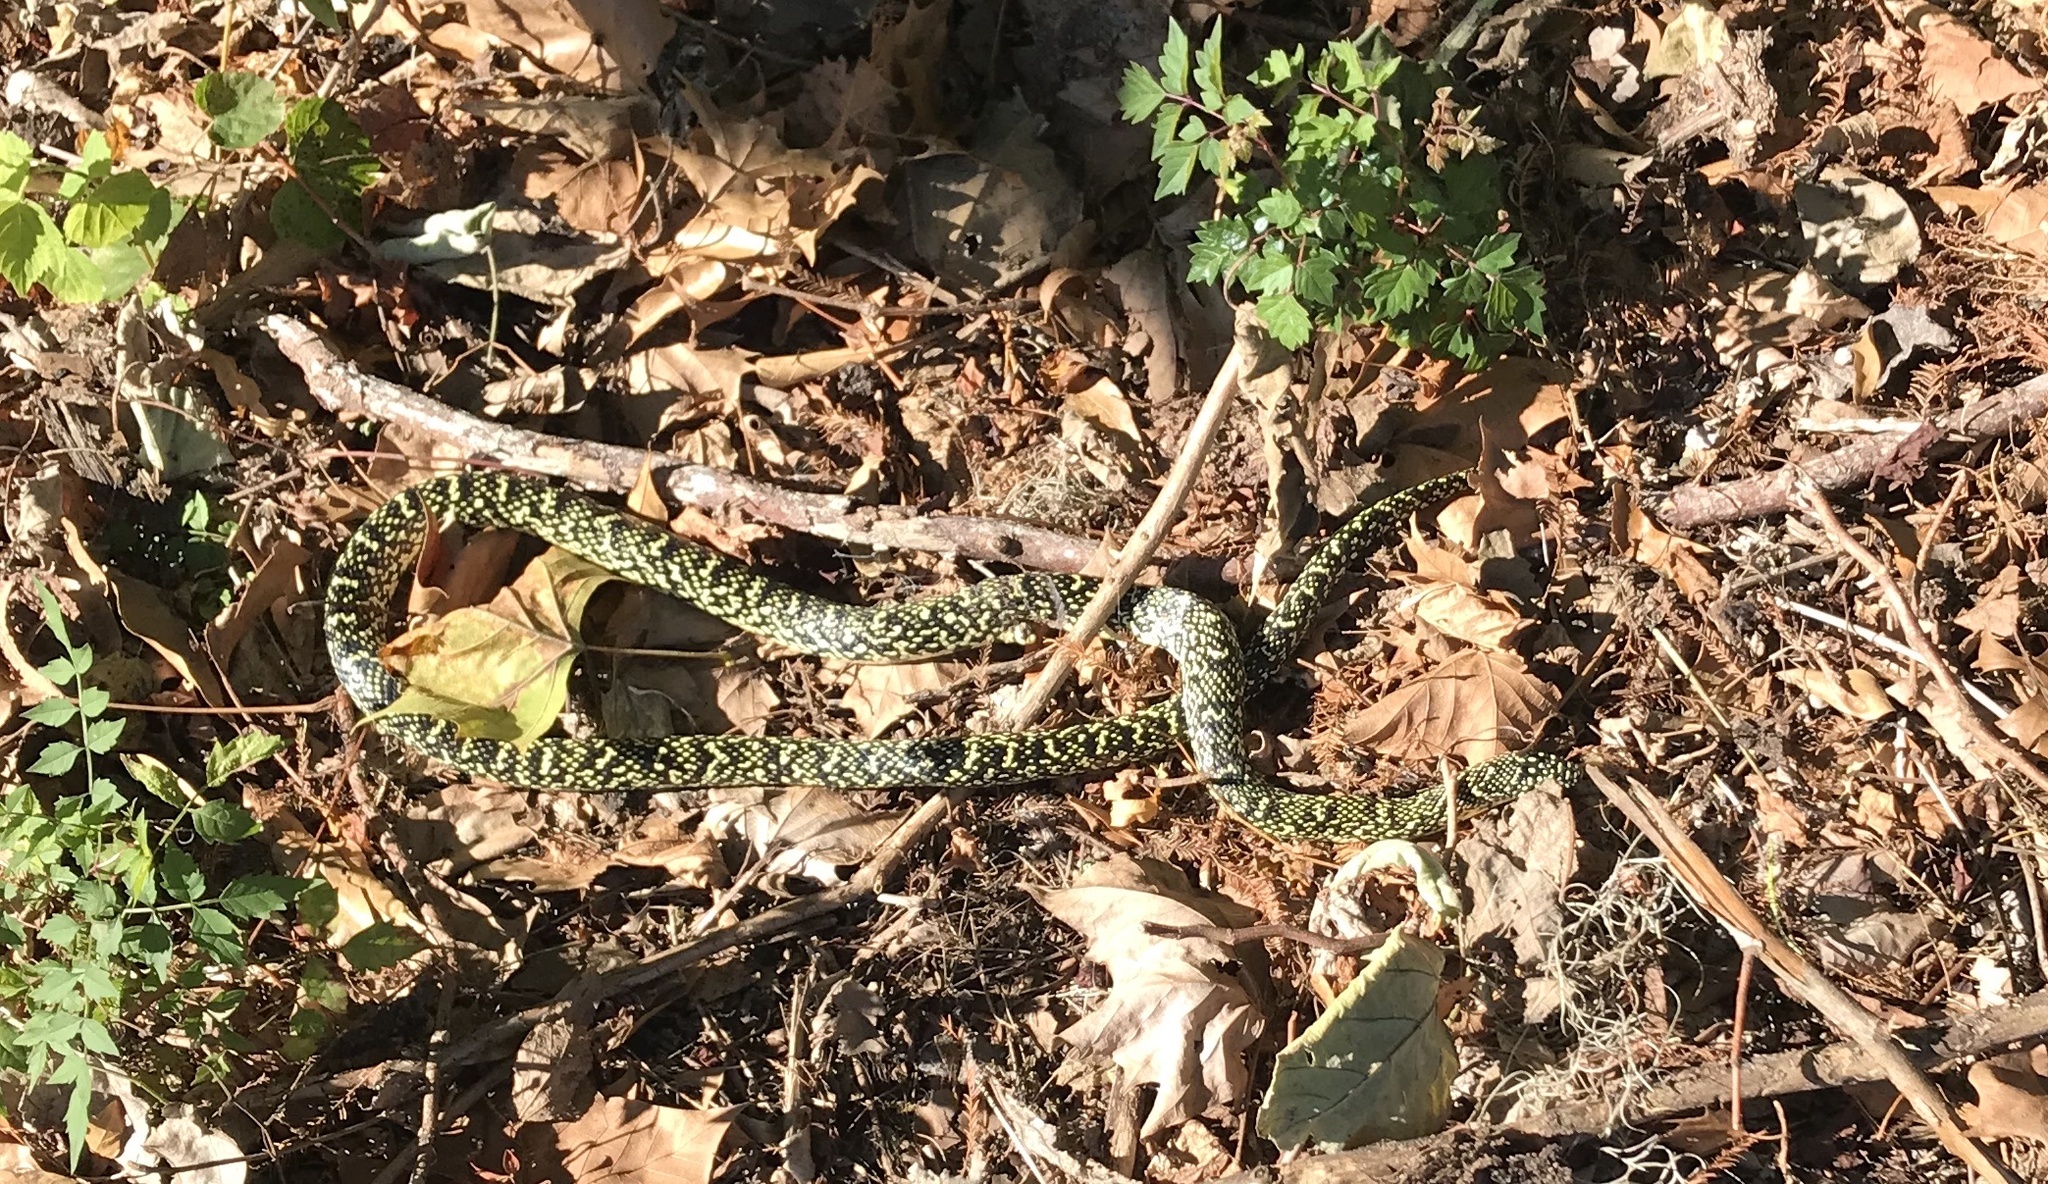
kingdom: Animalia
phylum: Chordata
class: Squamata
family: Colubridae
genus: Lampropeltis
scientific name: Lampropeltis nigra
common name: Black kingsnake
